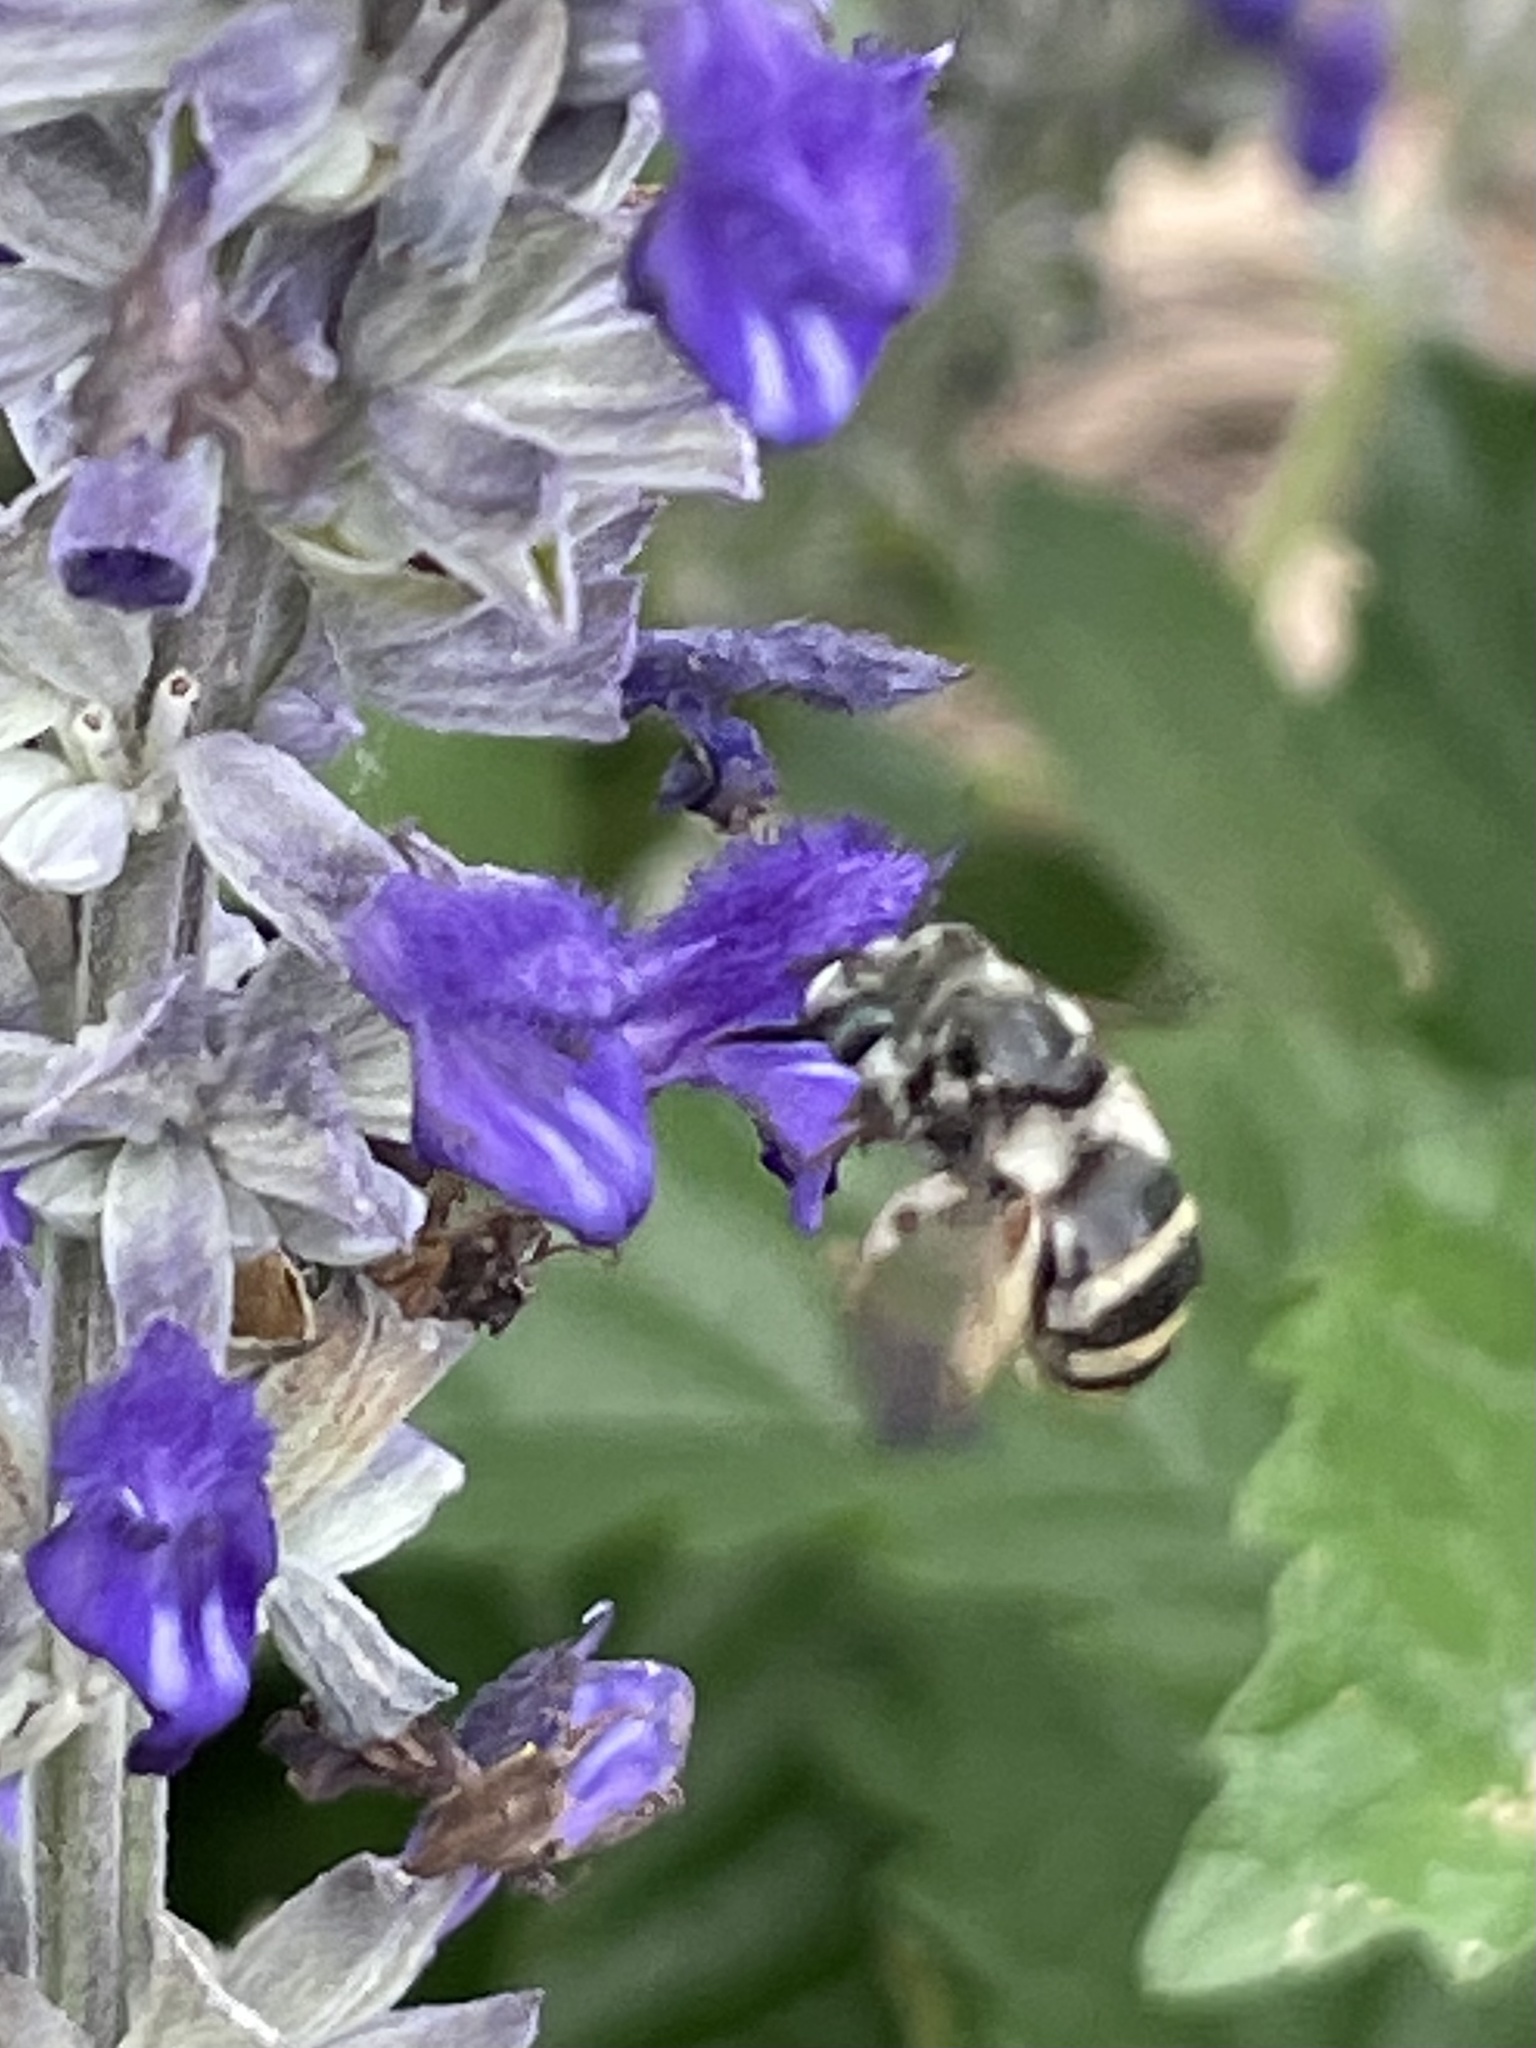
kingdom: Animalia
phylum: Arthropoda
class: Insecta
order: Hymenoptera
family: Apidae
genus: Florilegus
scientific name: Florilegus condignus
